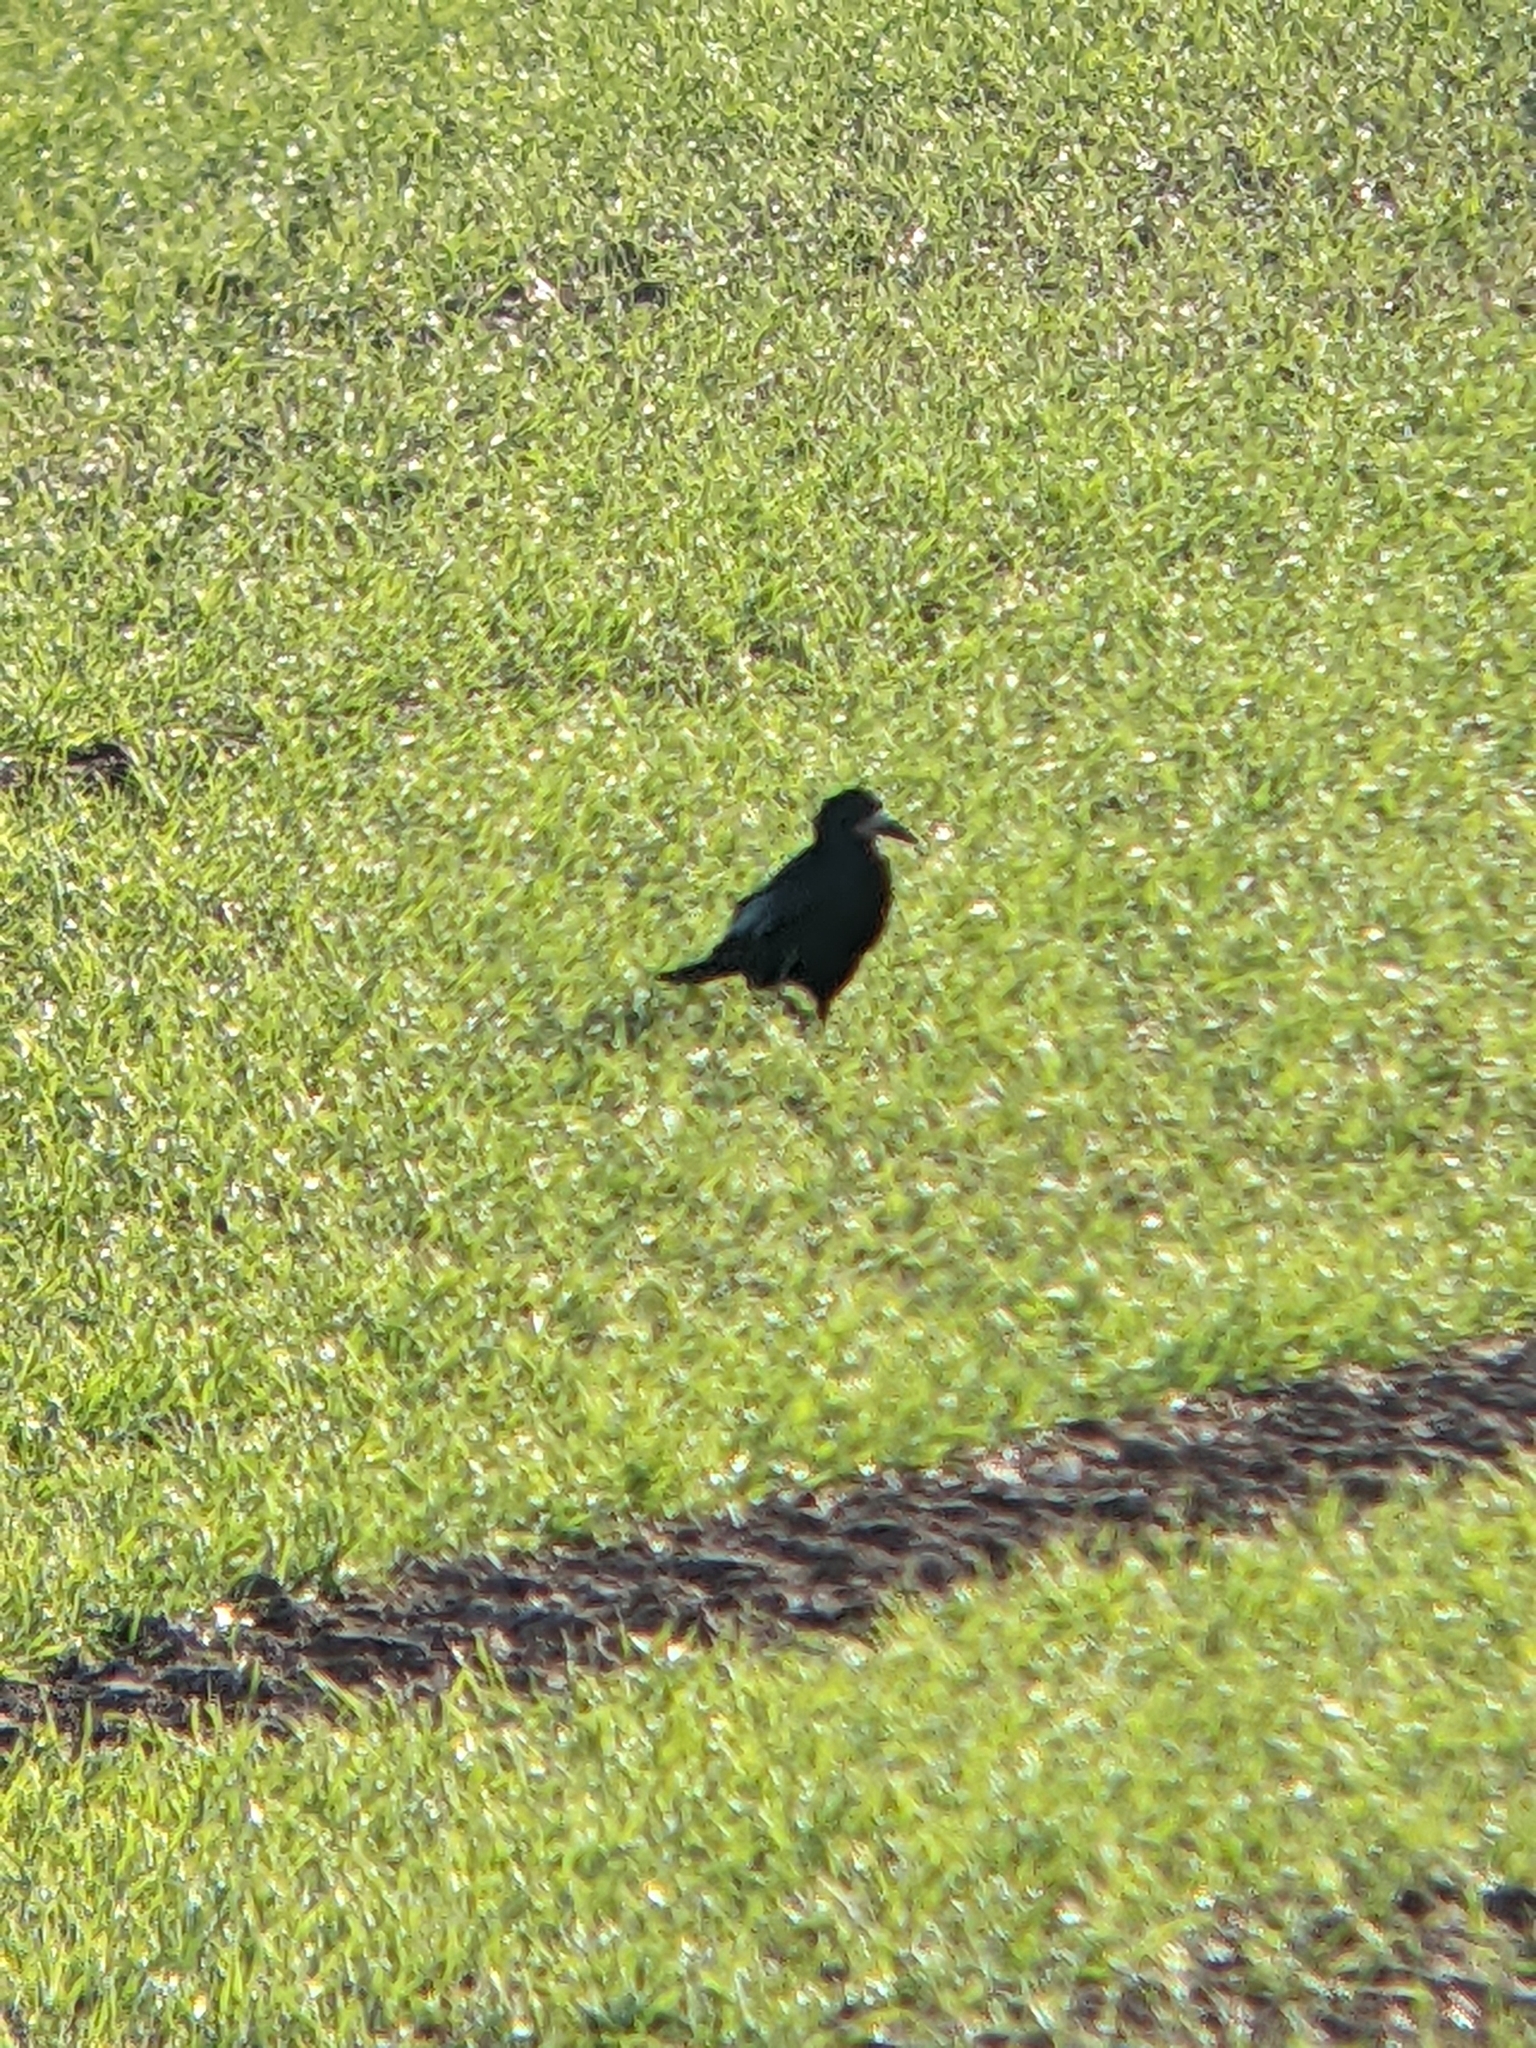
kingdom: Animalia
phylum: Chordata
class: Aves
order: Passeriformes
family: Corvidae
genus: Corvus
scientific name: Corvus frugilegus
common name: Rook
